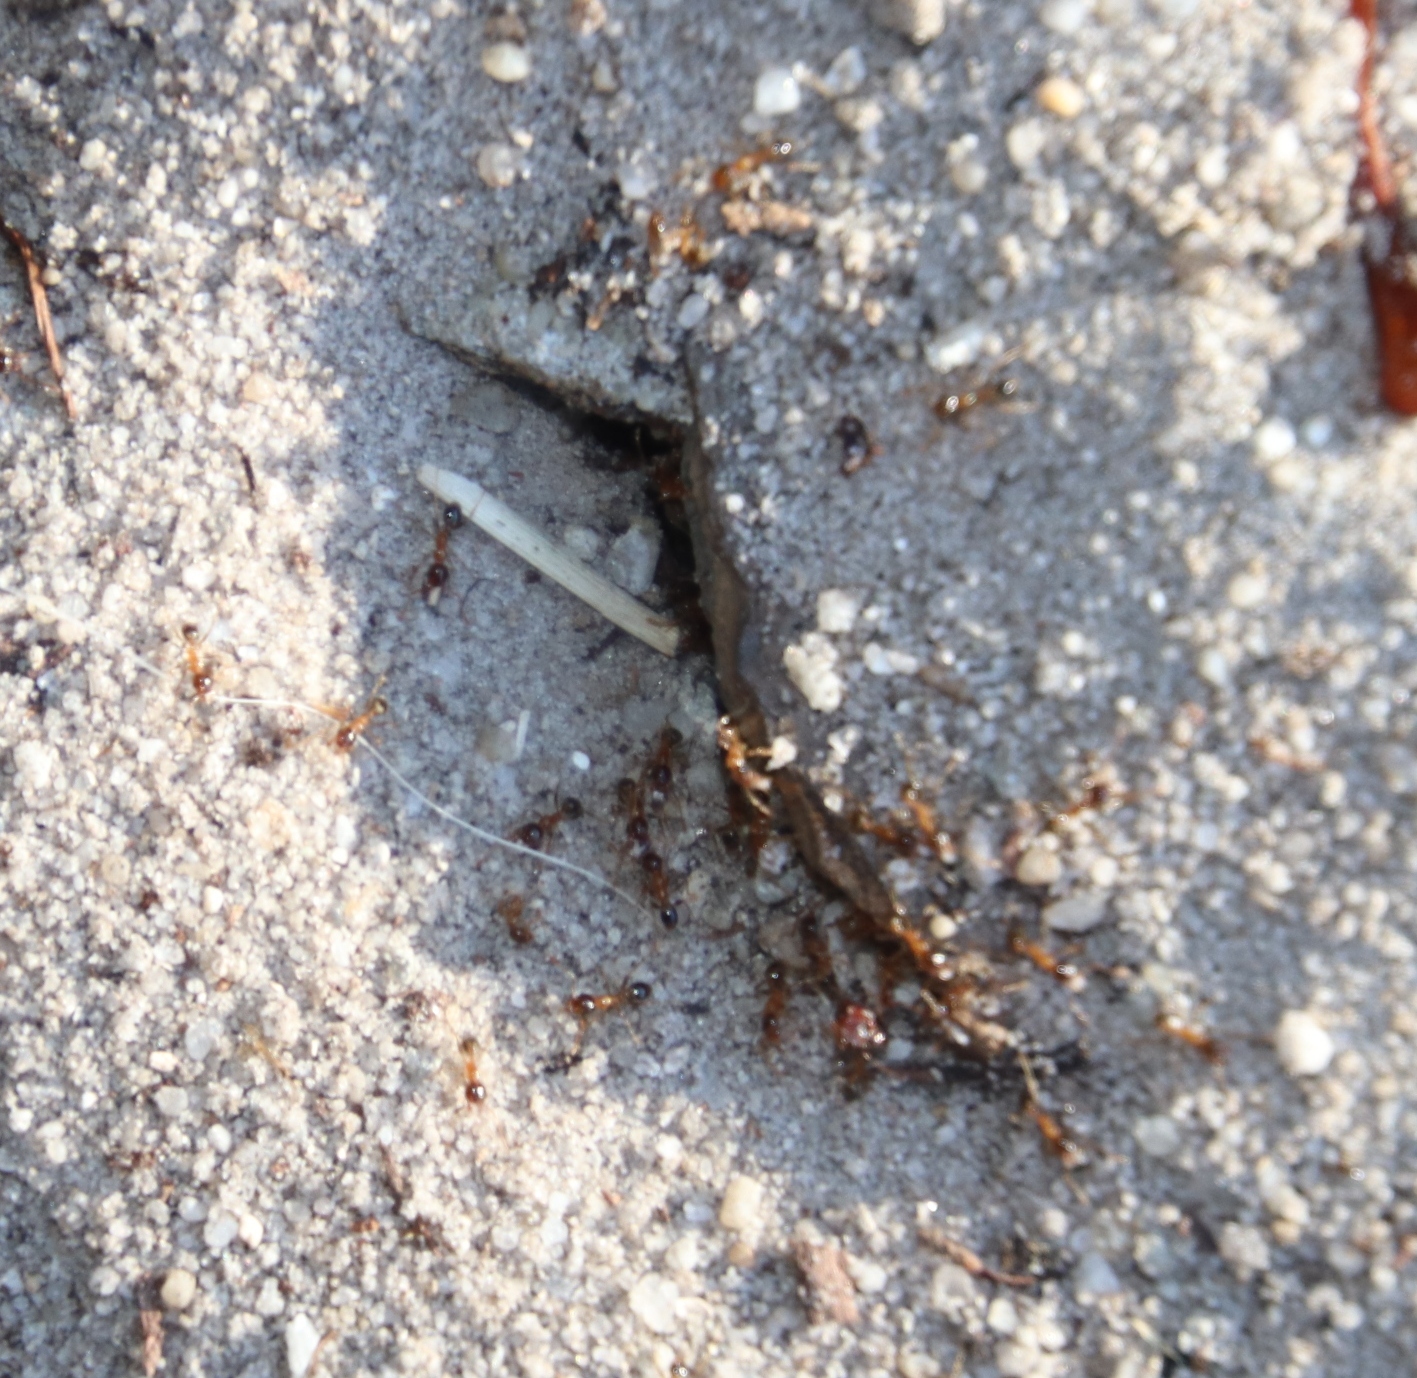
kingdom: Animalia
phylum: Arthropoda
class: Insecta
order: Hymenoptera
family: Formicidae
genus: Pheidole
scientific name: Pheidole megacephala
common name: Bigheaded ant
